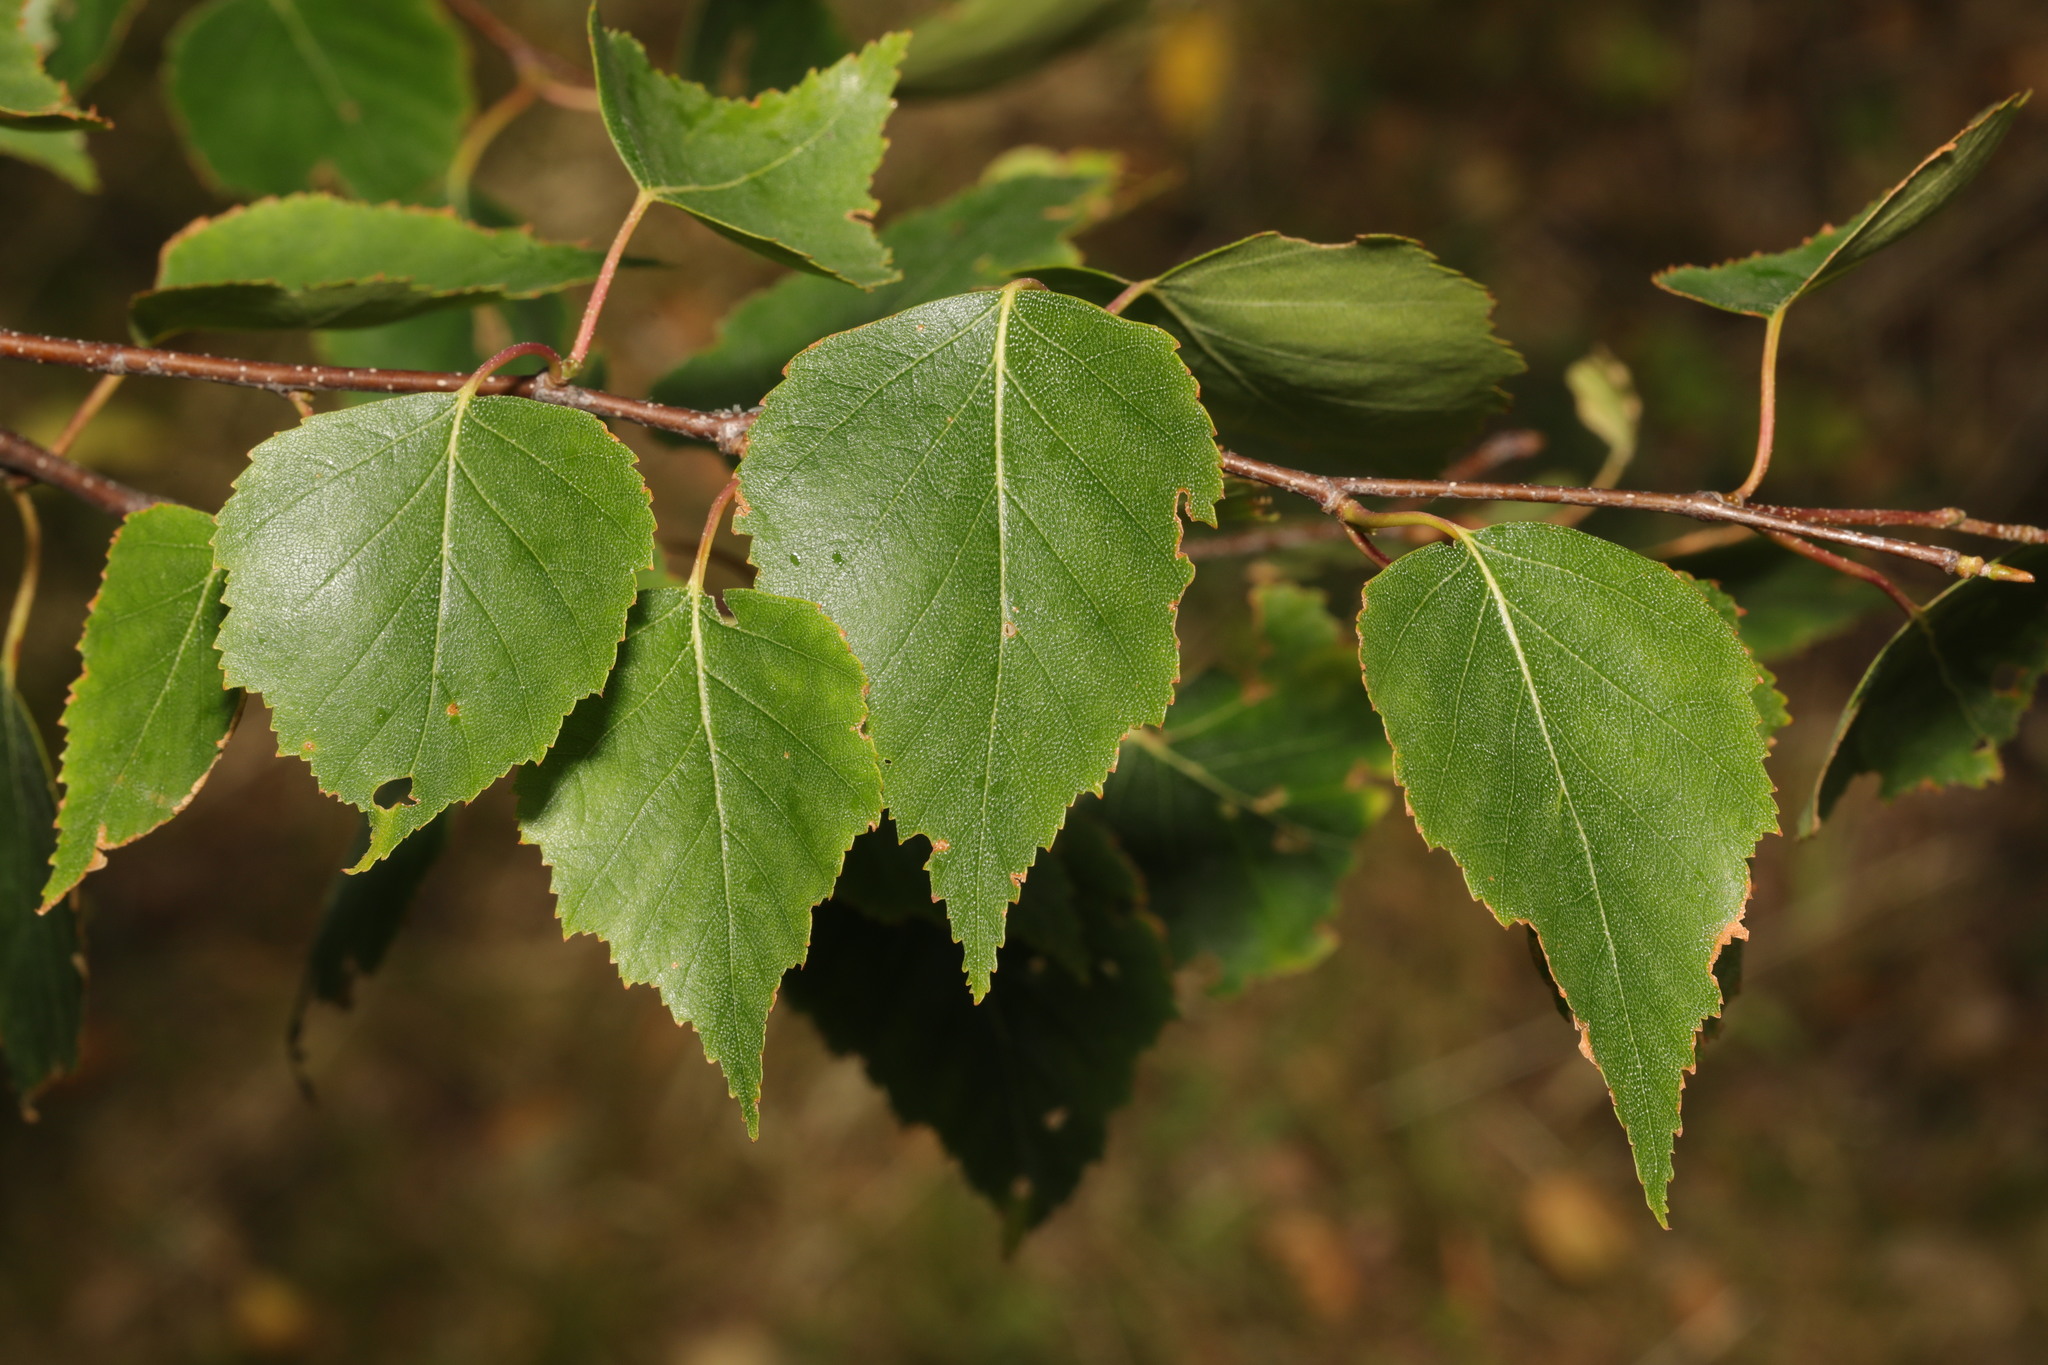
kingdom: Plantae
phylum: Tracheophyta
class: Magnoliopsida
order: Fagales
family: Betulaceae
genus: Betula
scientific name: Betula pendula
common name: Silver birch
